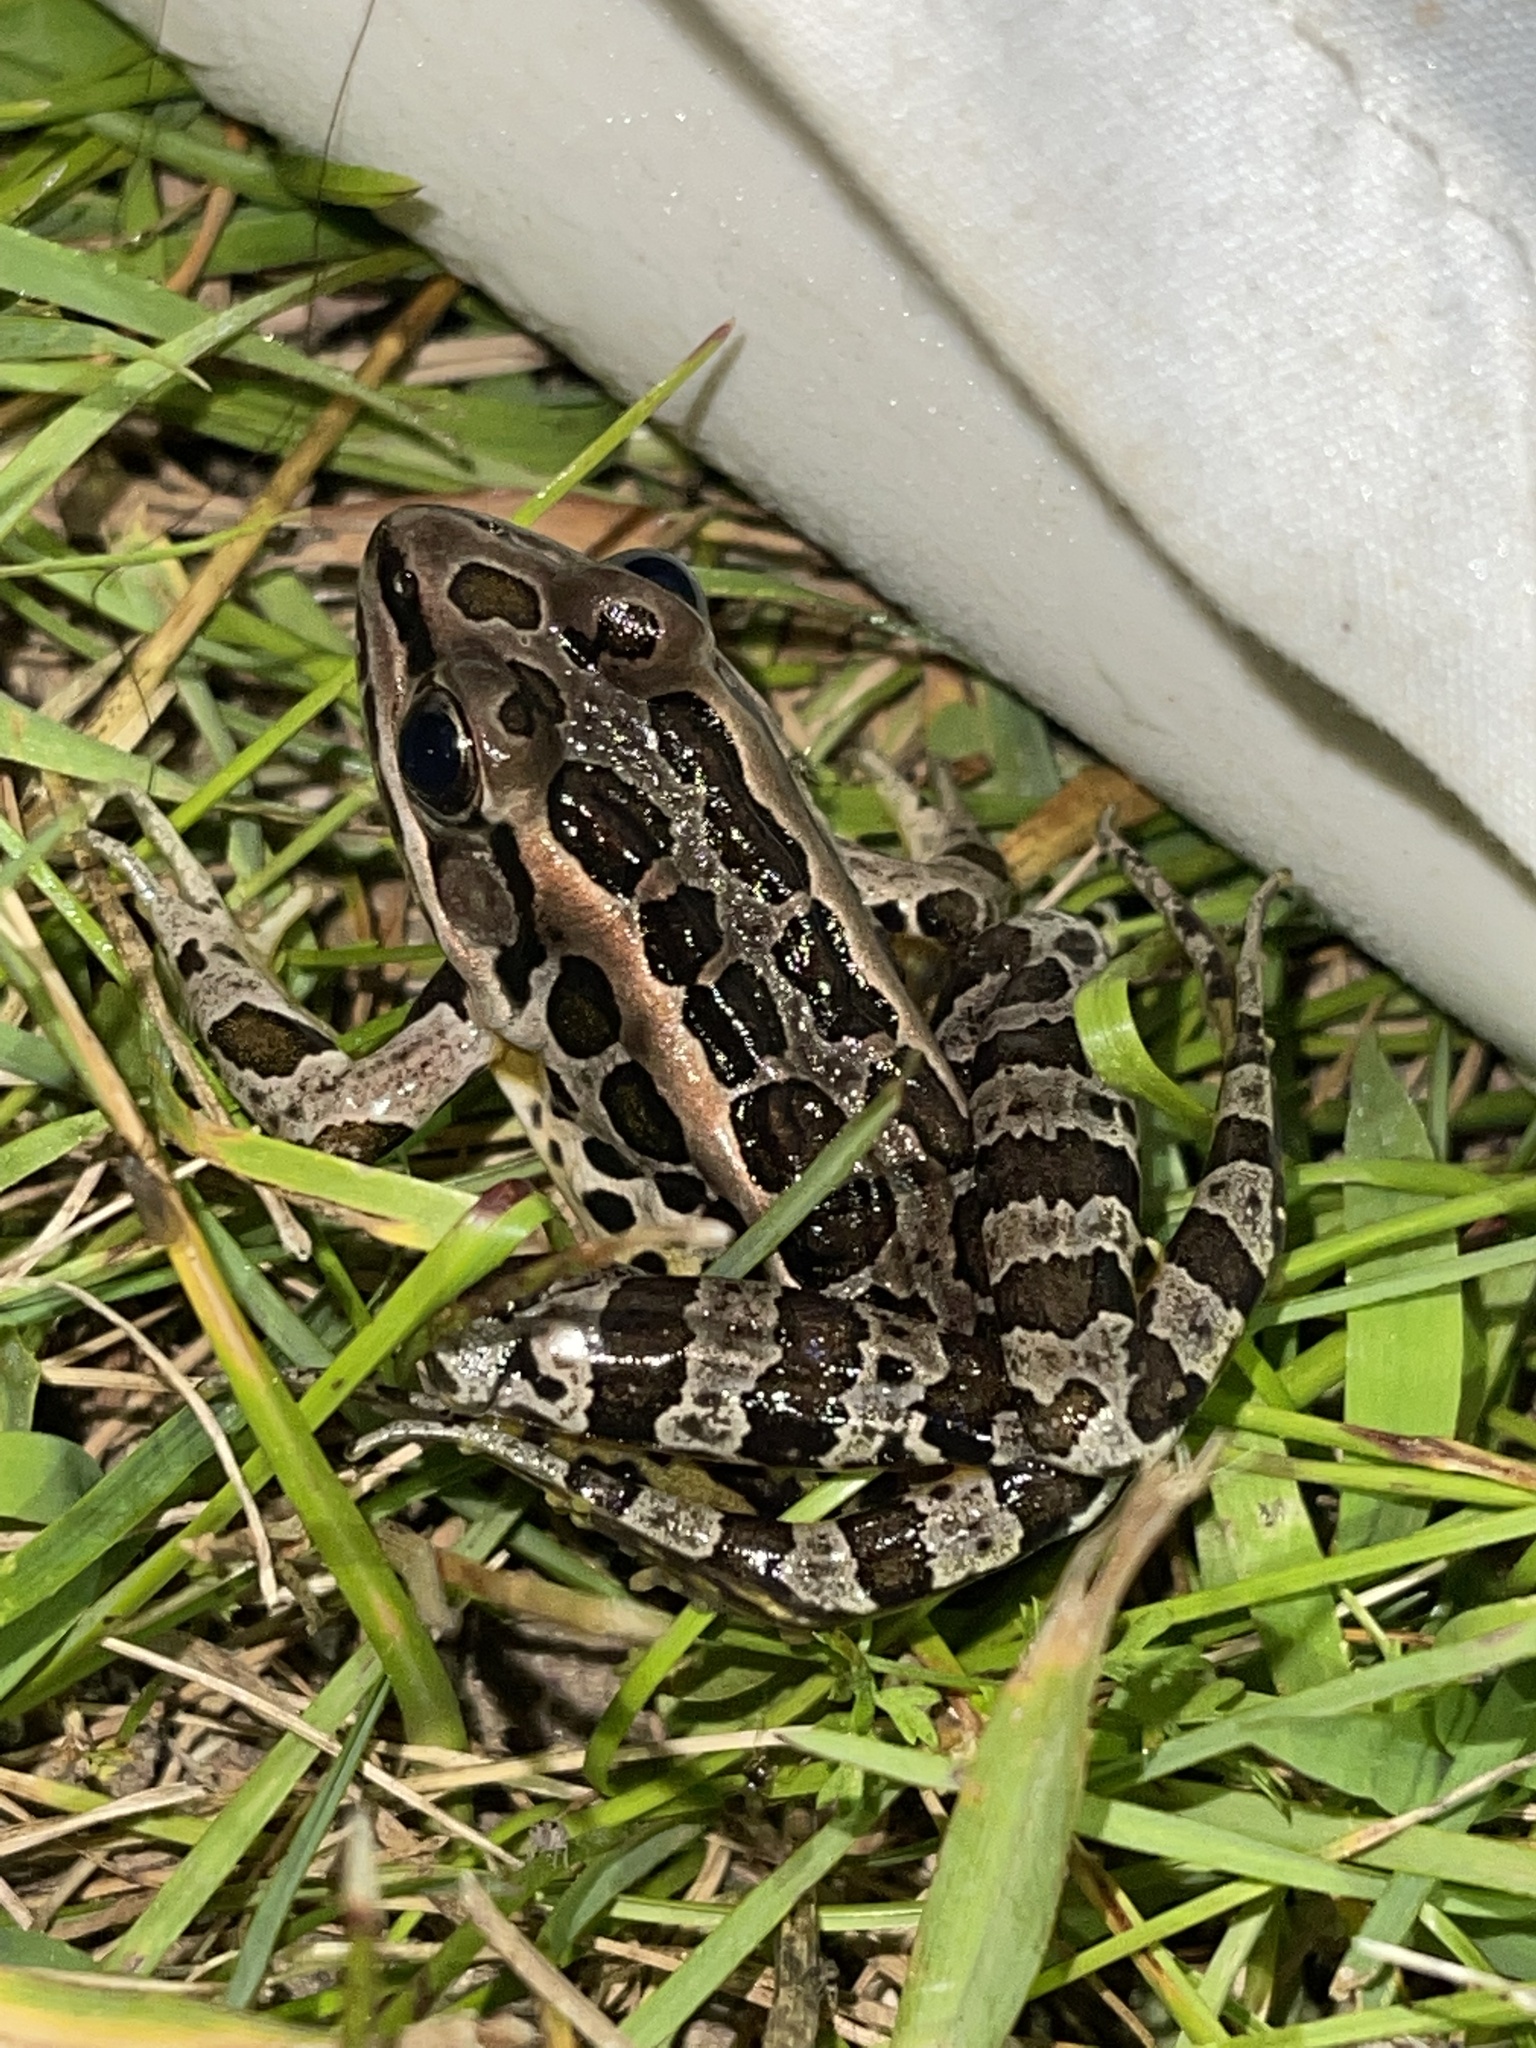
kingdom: Animalia
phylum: Chordata
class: Amphibia
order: Anura
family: Ranidae
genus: Lithobates
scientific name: Lithobates palustris
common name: Pickerel frog
